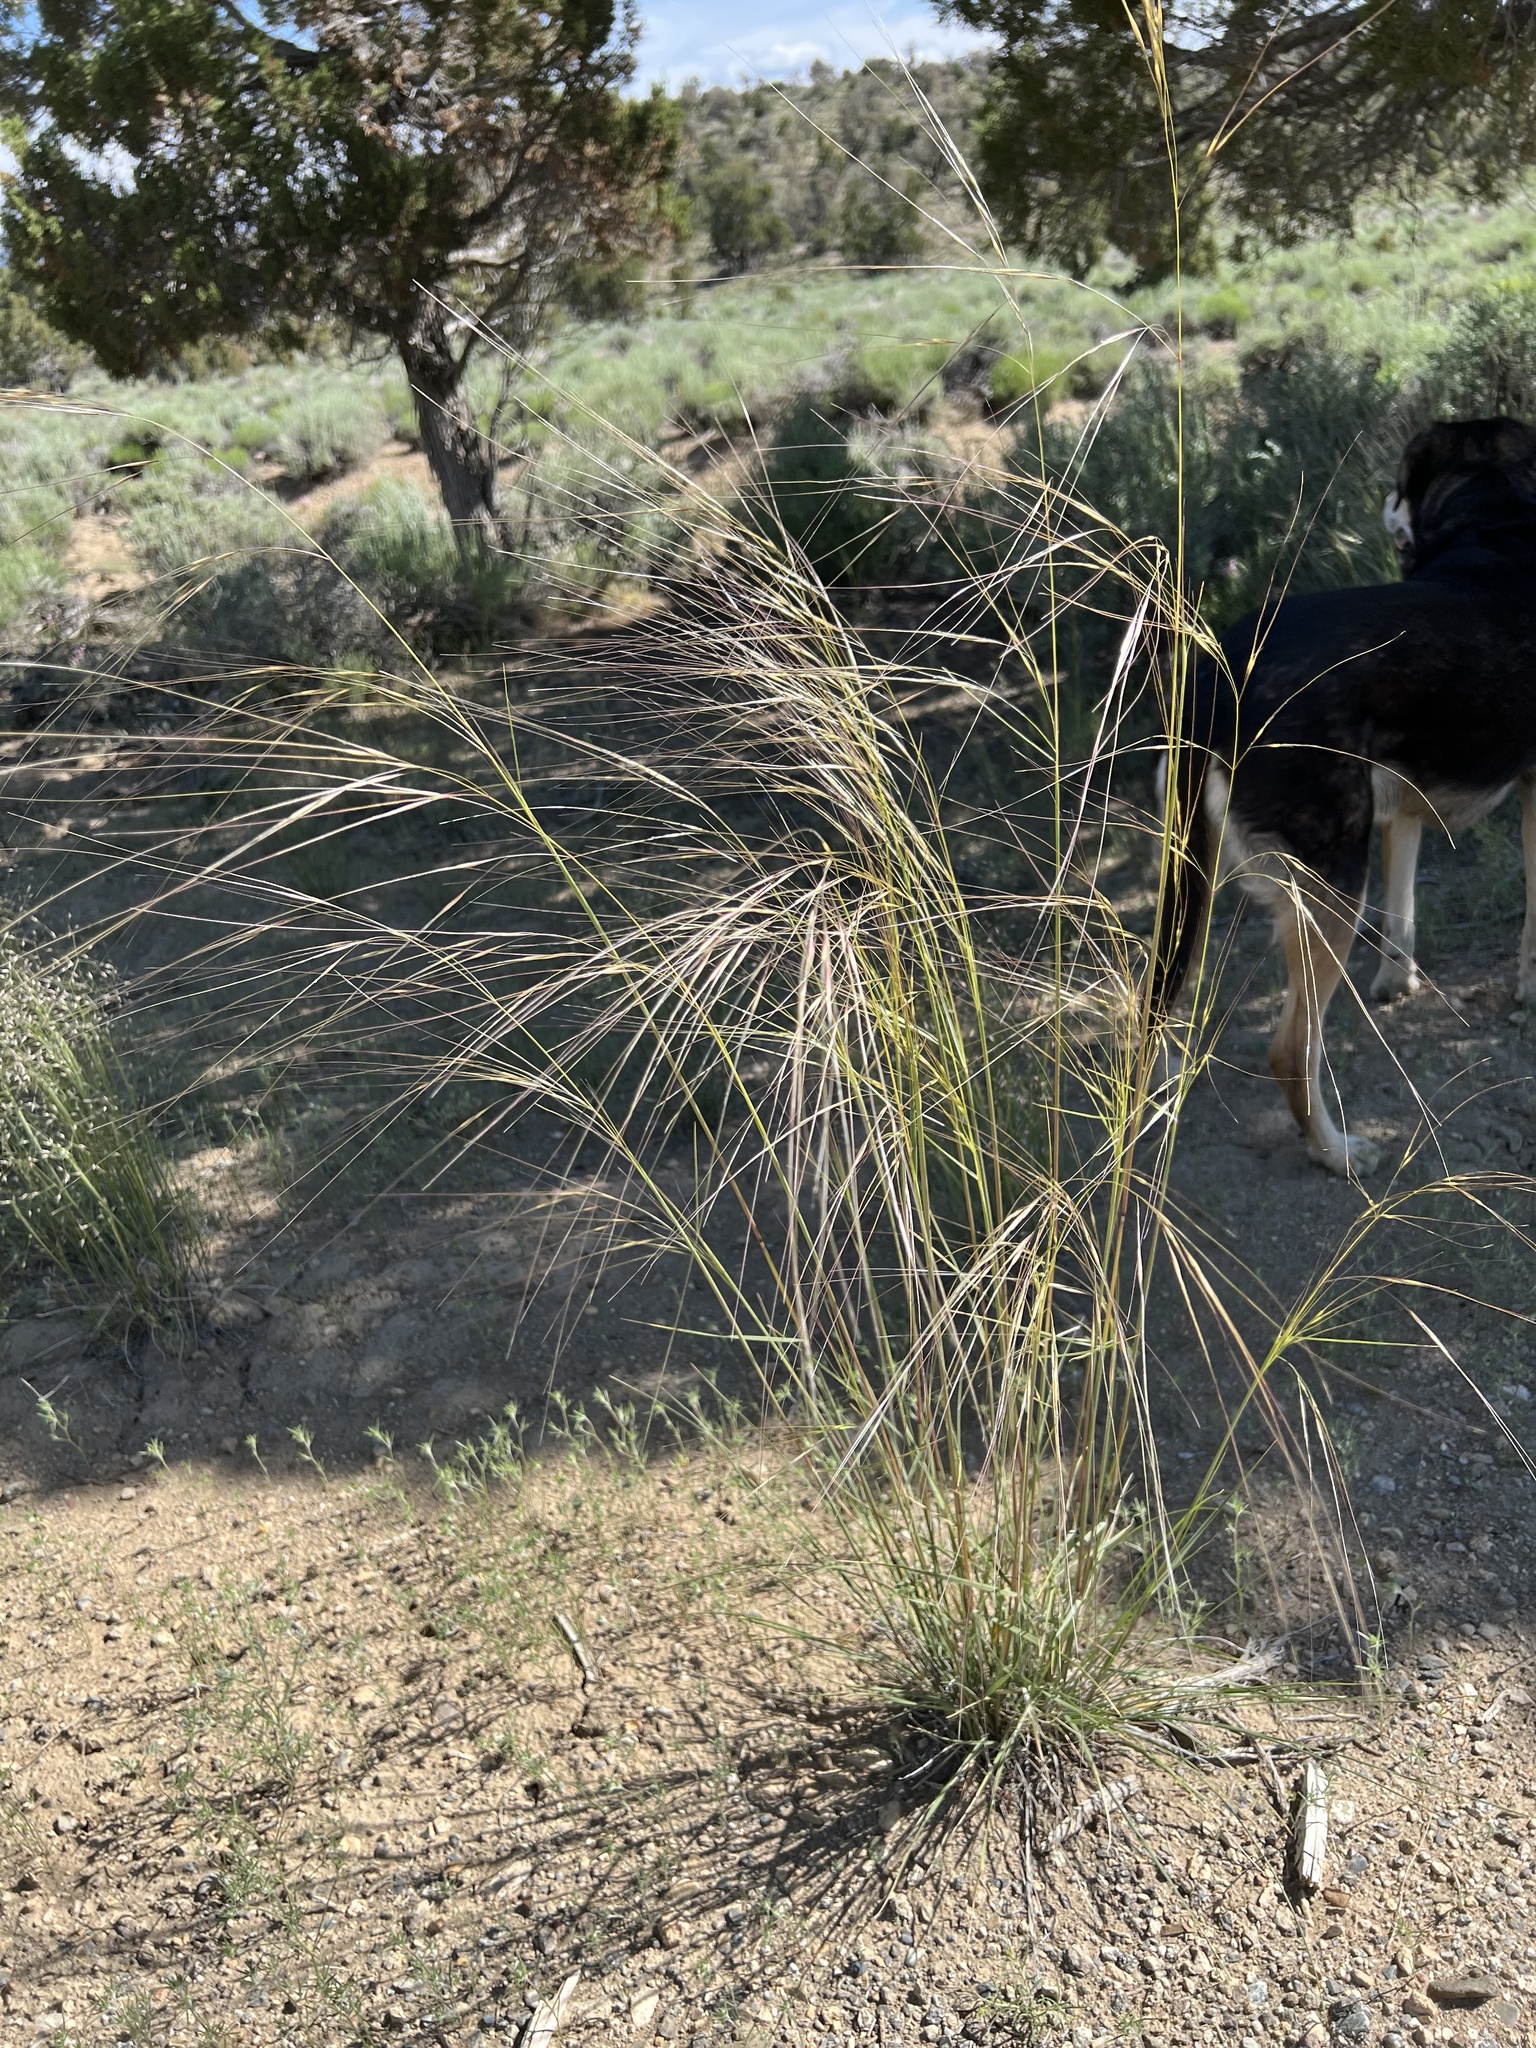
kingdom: Plantae
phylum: Tracheophyta
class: Liliopsida
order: Poales
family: Poaceae
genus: Hesperostipa
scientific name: Hesperostipa comata
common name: Needle-and-thread grass
